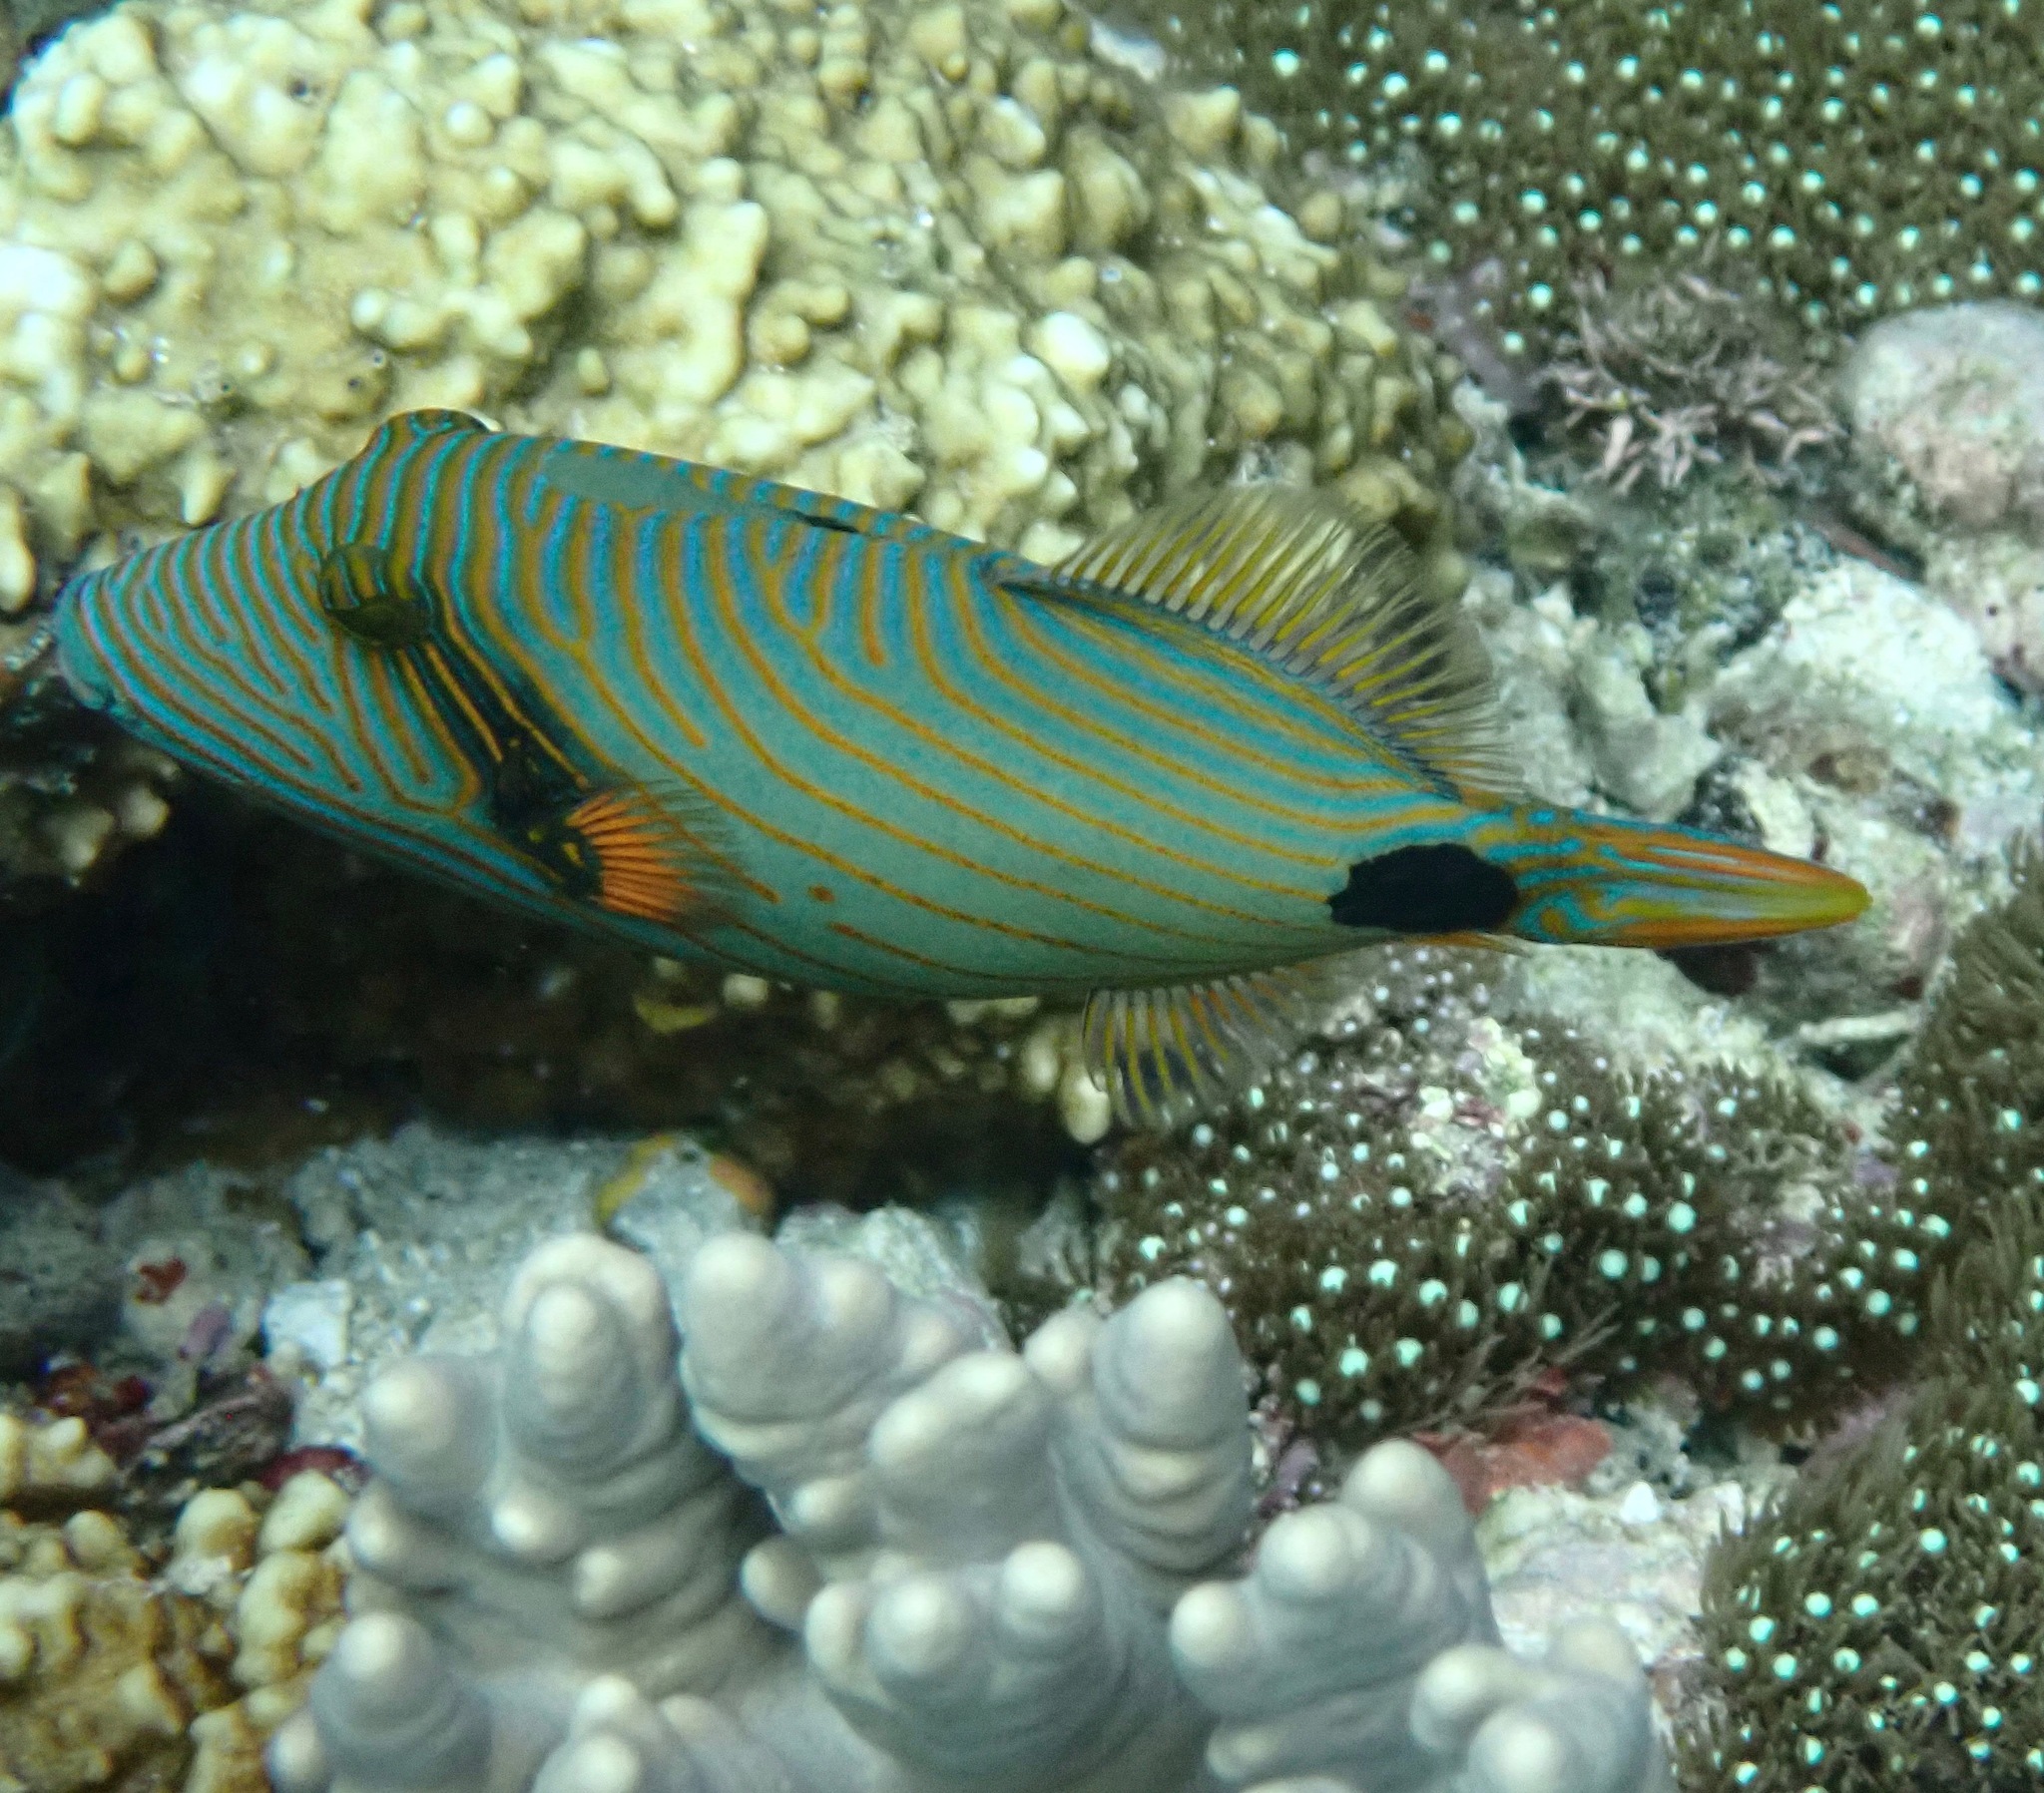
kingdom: Animalia
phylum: Chordata
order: Tetraodontiformes
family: Balistidae
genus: Balistapus
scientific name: Balistapus undulatus
